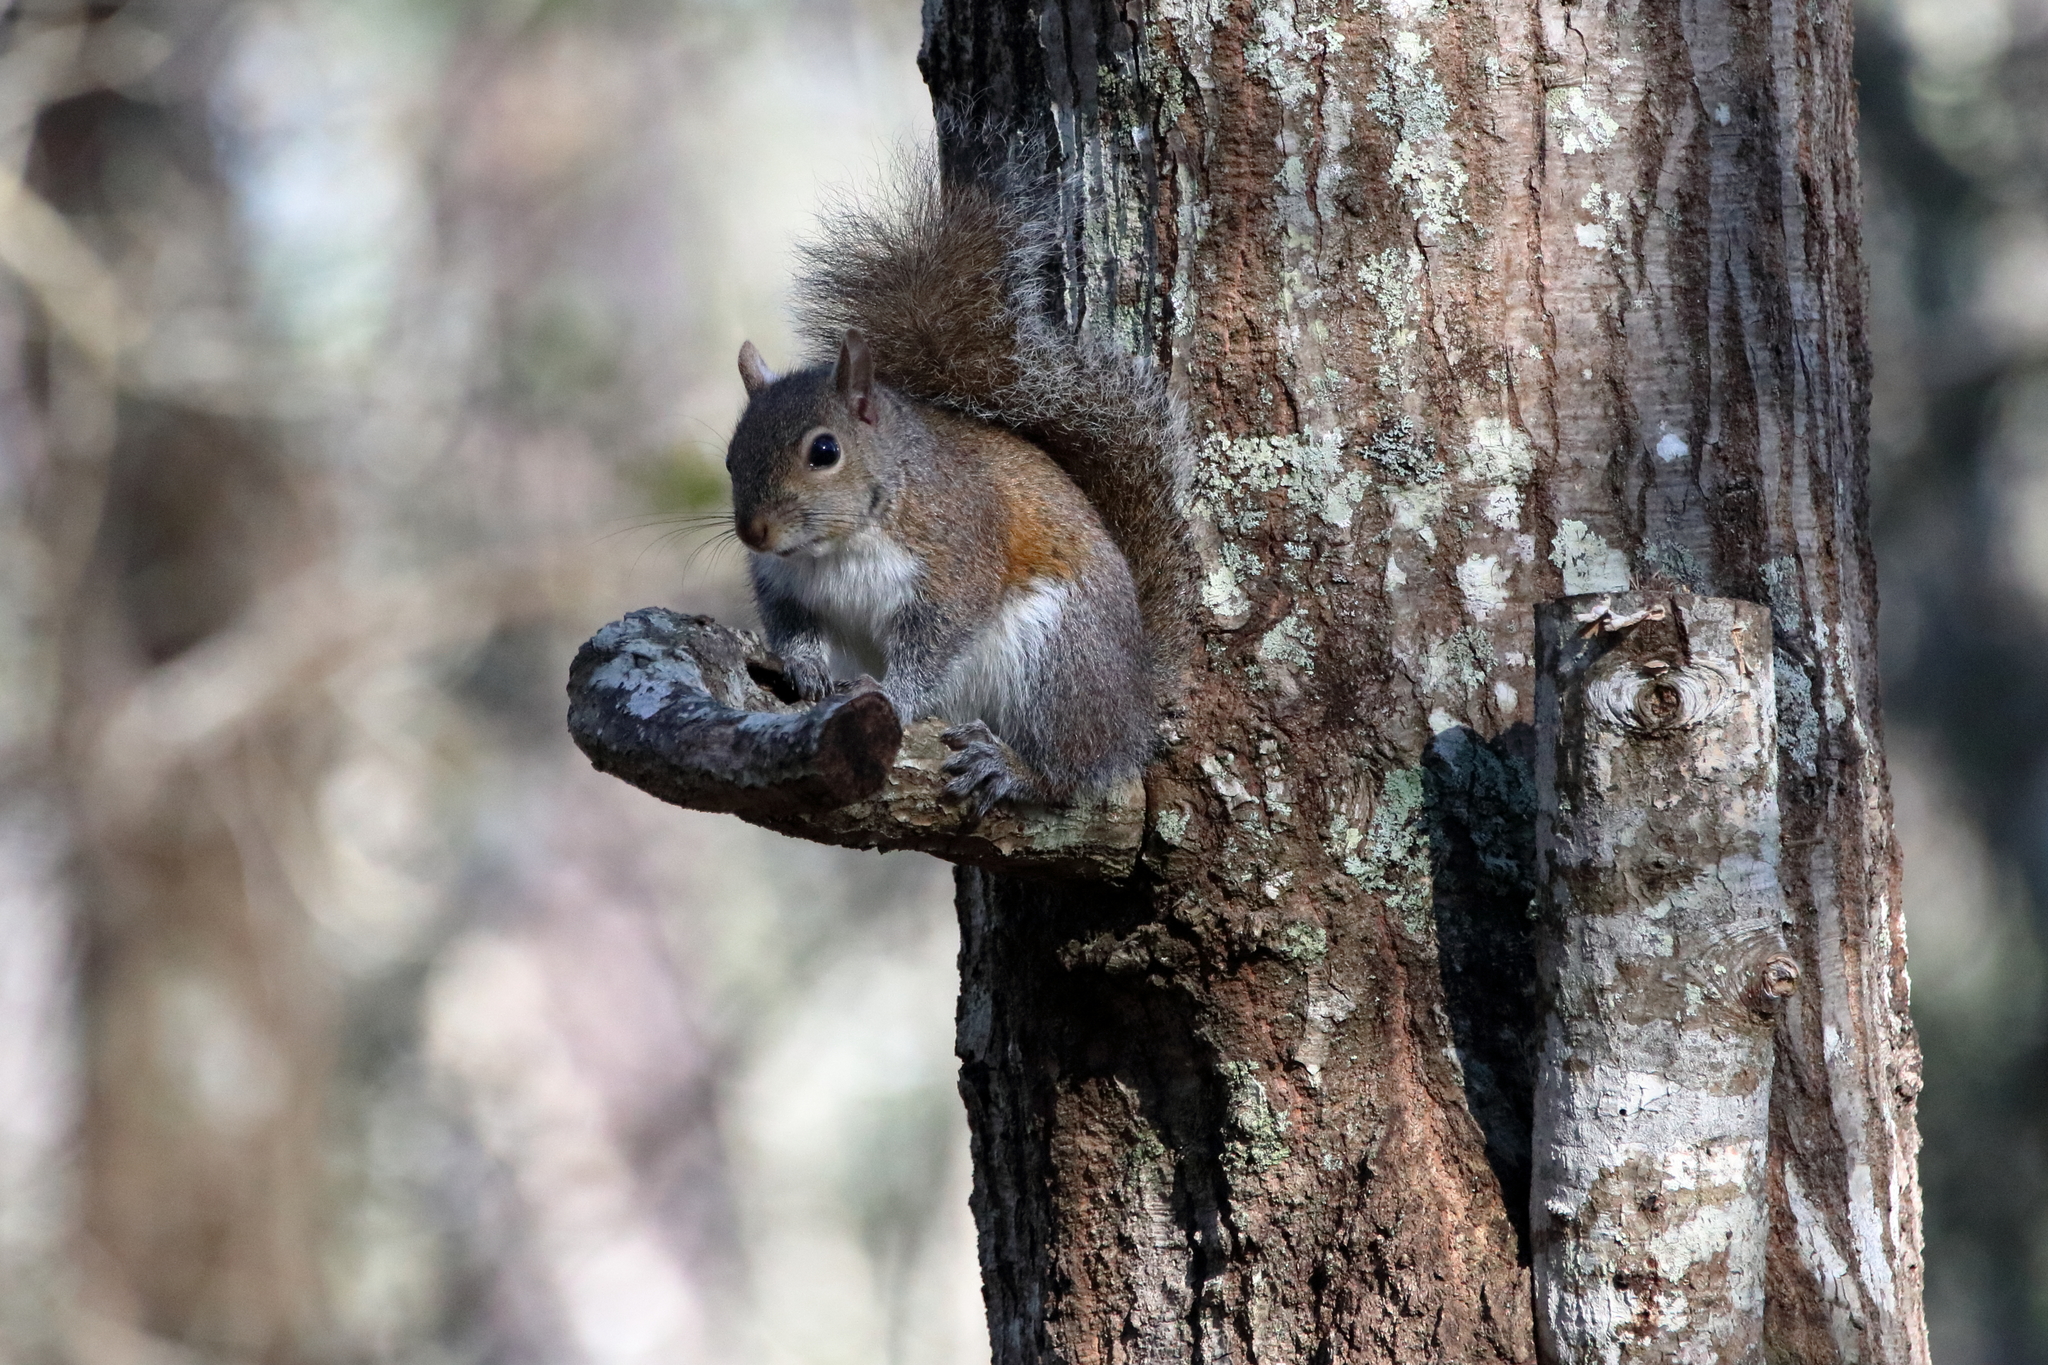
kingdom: Animalia
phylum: Chordata
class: Mammalia
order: Rodentia
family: Sciuridae
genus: Sciurus
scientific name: Sciurus carolinensis
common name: Eastern gray squirrel
